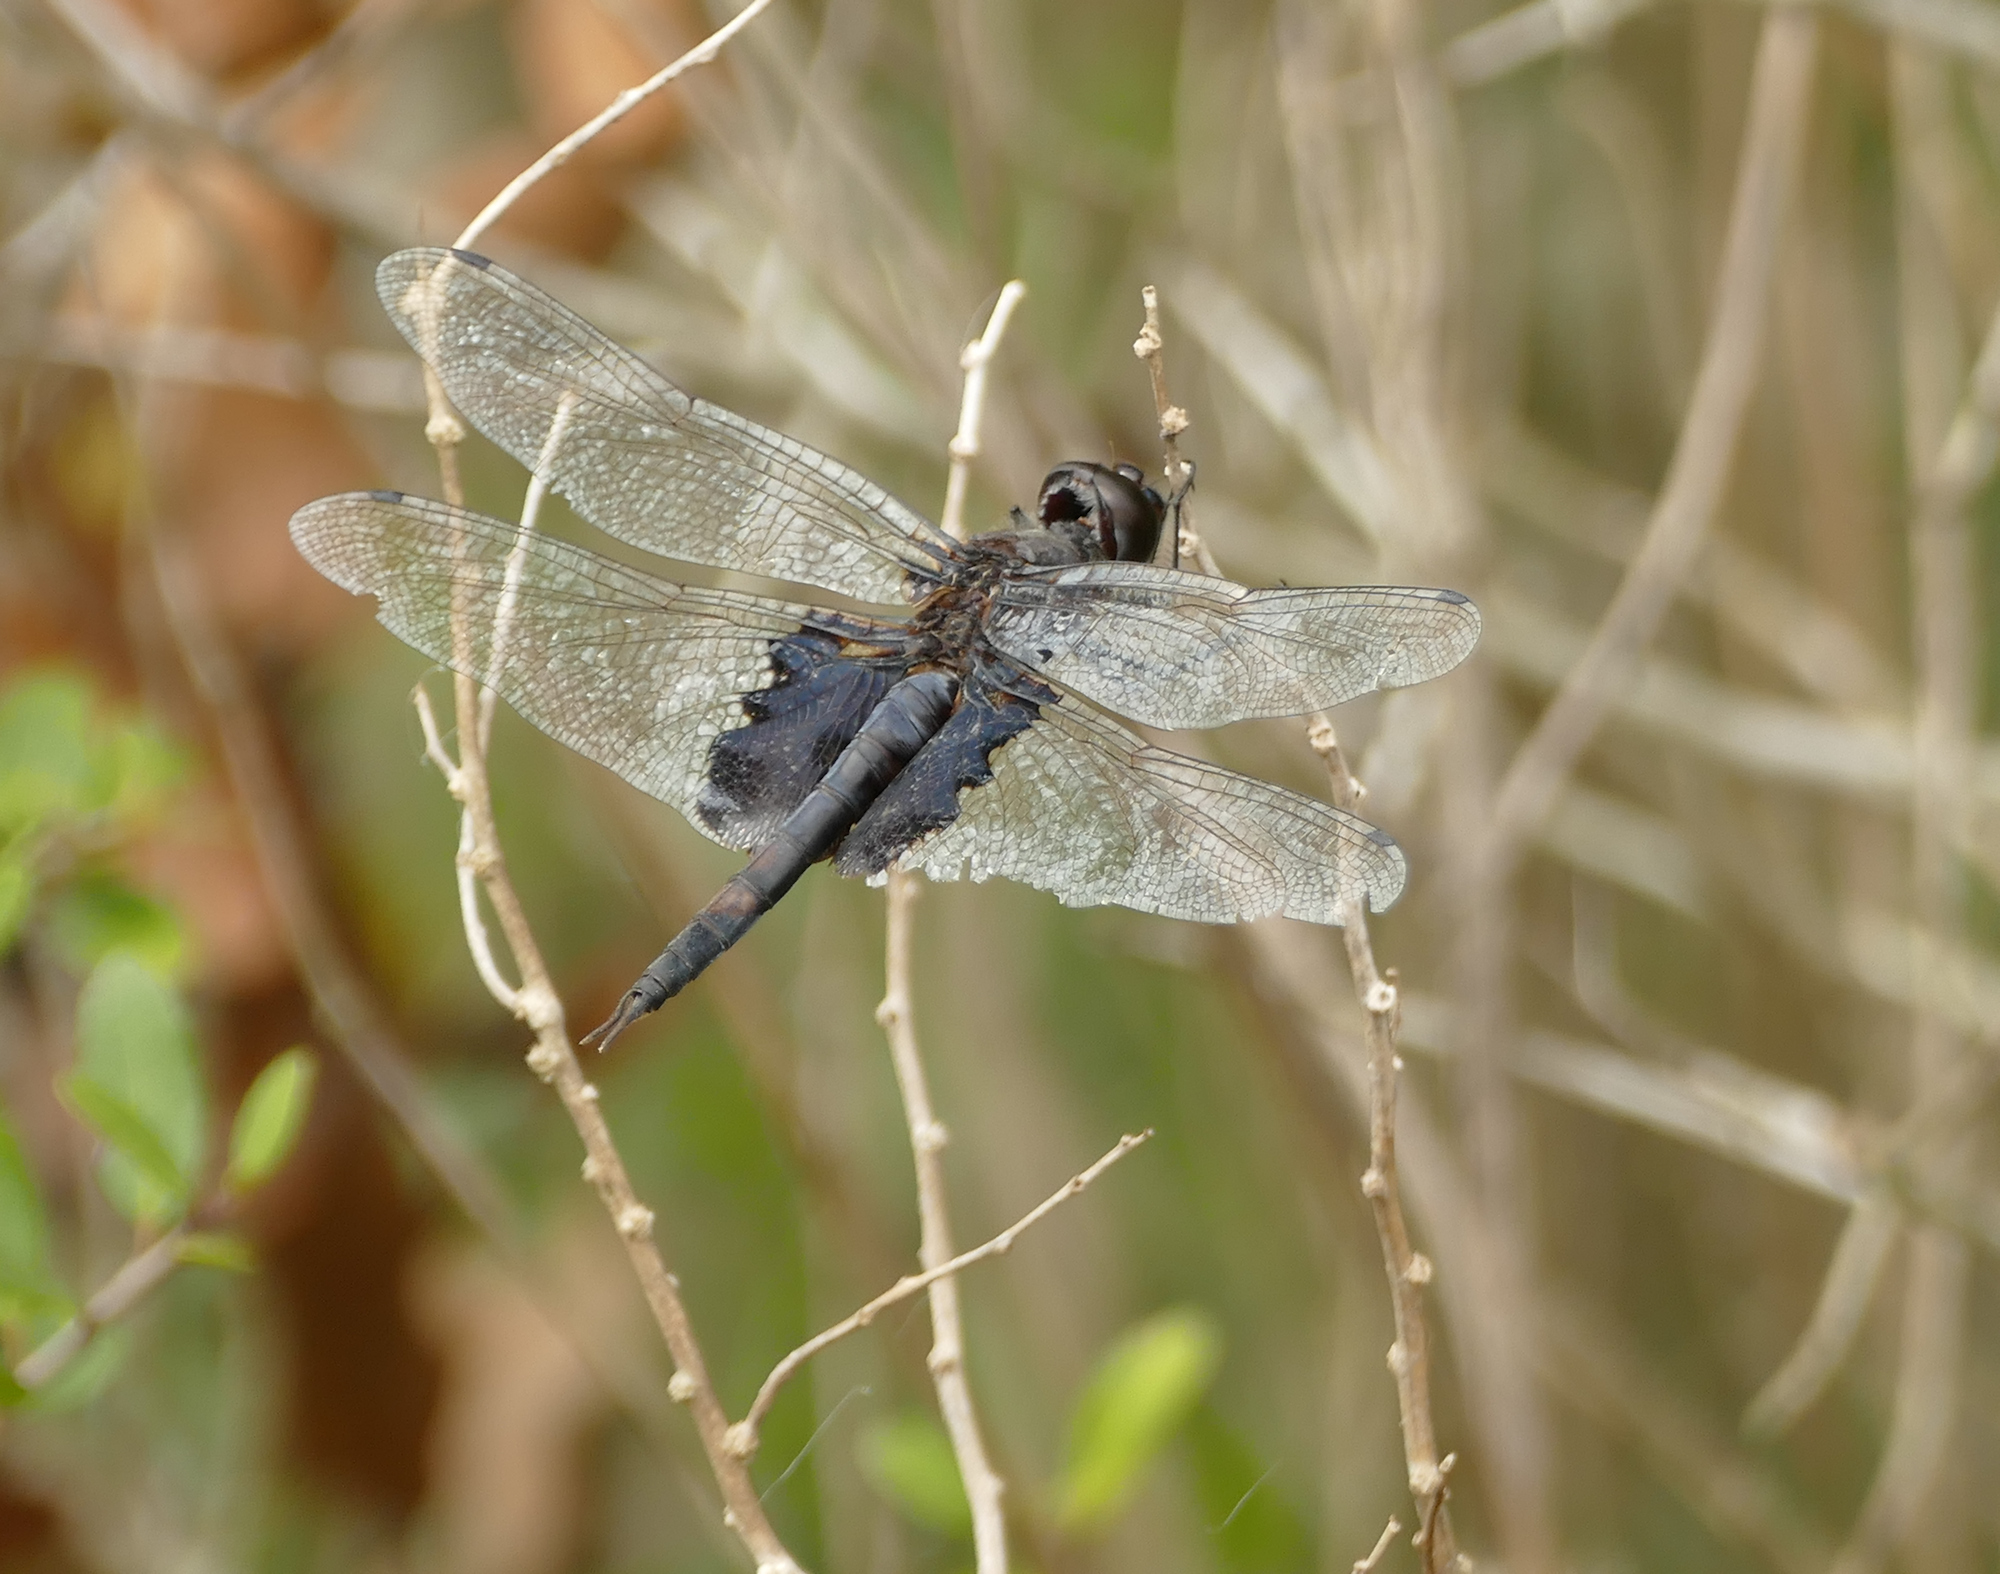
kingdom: Animalia
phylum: Arthropoda
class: Insecta
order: Odonata
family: Libellulidae
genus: Tramea
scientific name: Tramea lacerata
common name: Black saddlebags
